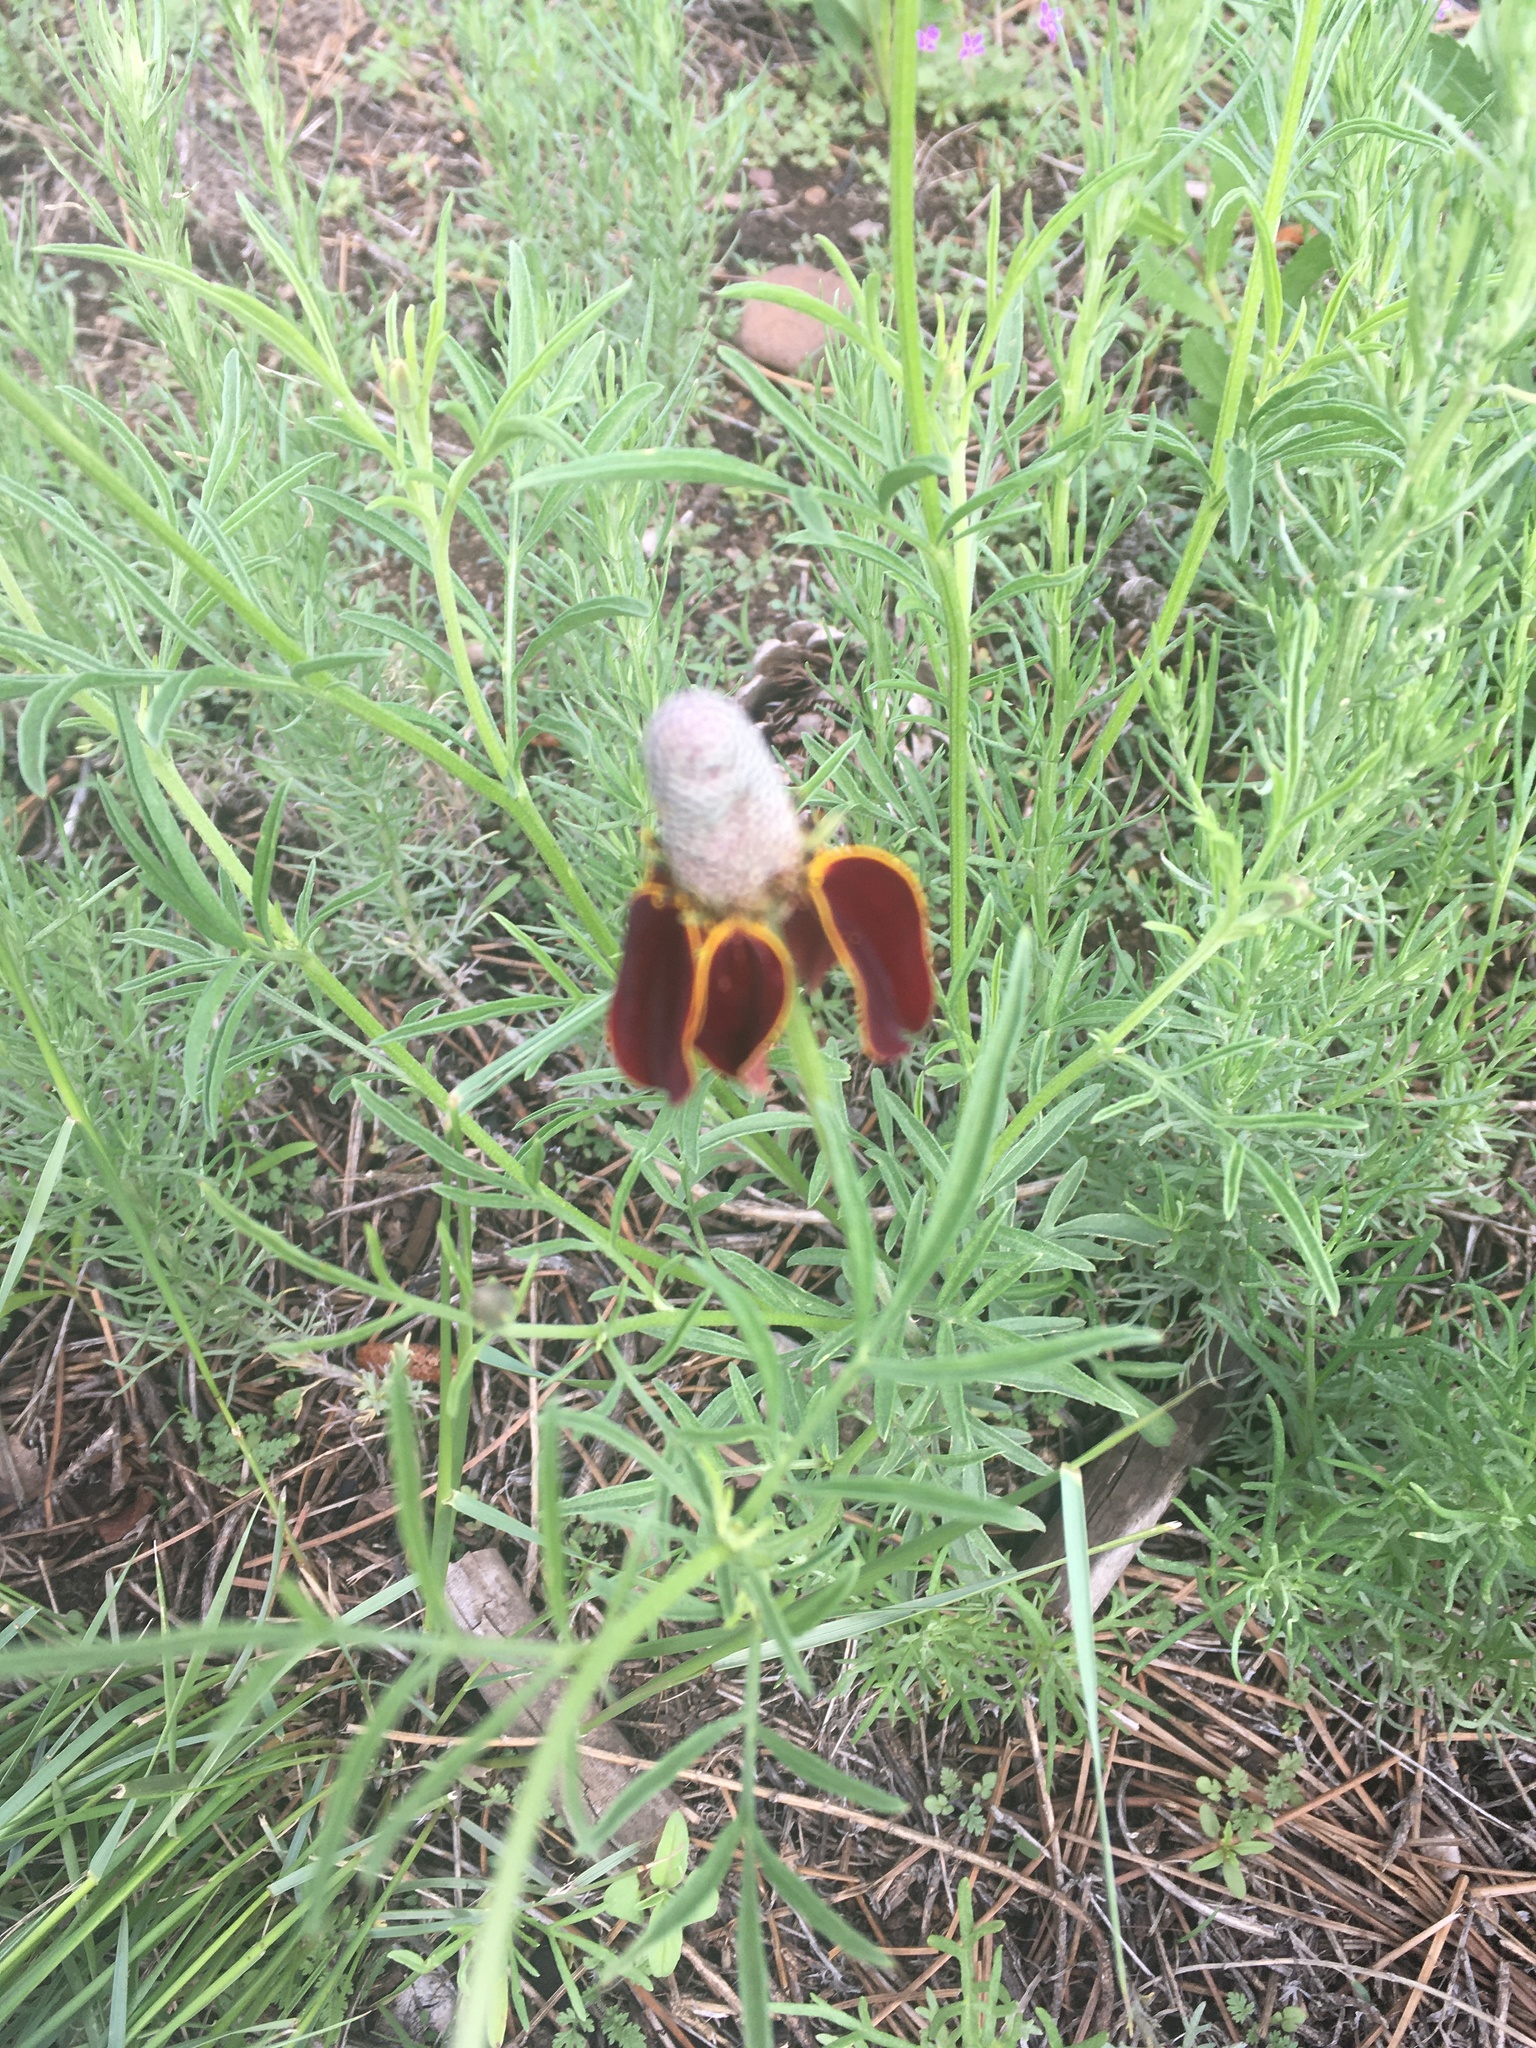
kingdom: Plantae
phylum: Tracheophyta
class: Magnoliopsida
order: Asterales
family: Asteraceae
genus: Ratibida
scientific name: Ratibida columnifera
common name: Prairie coneflower
